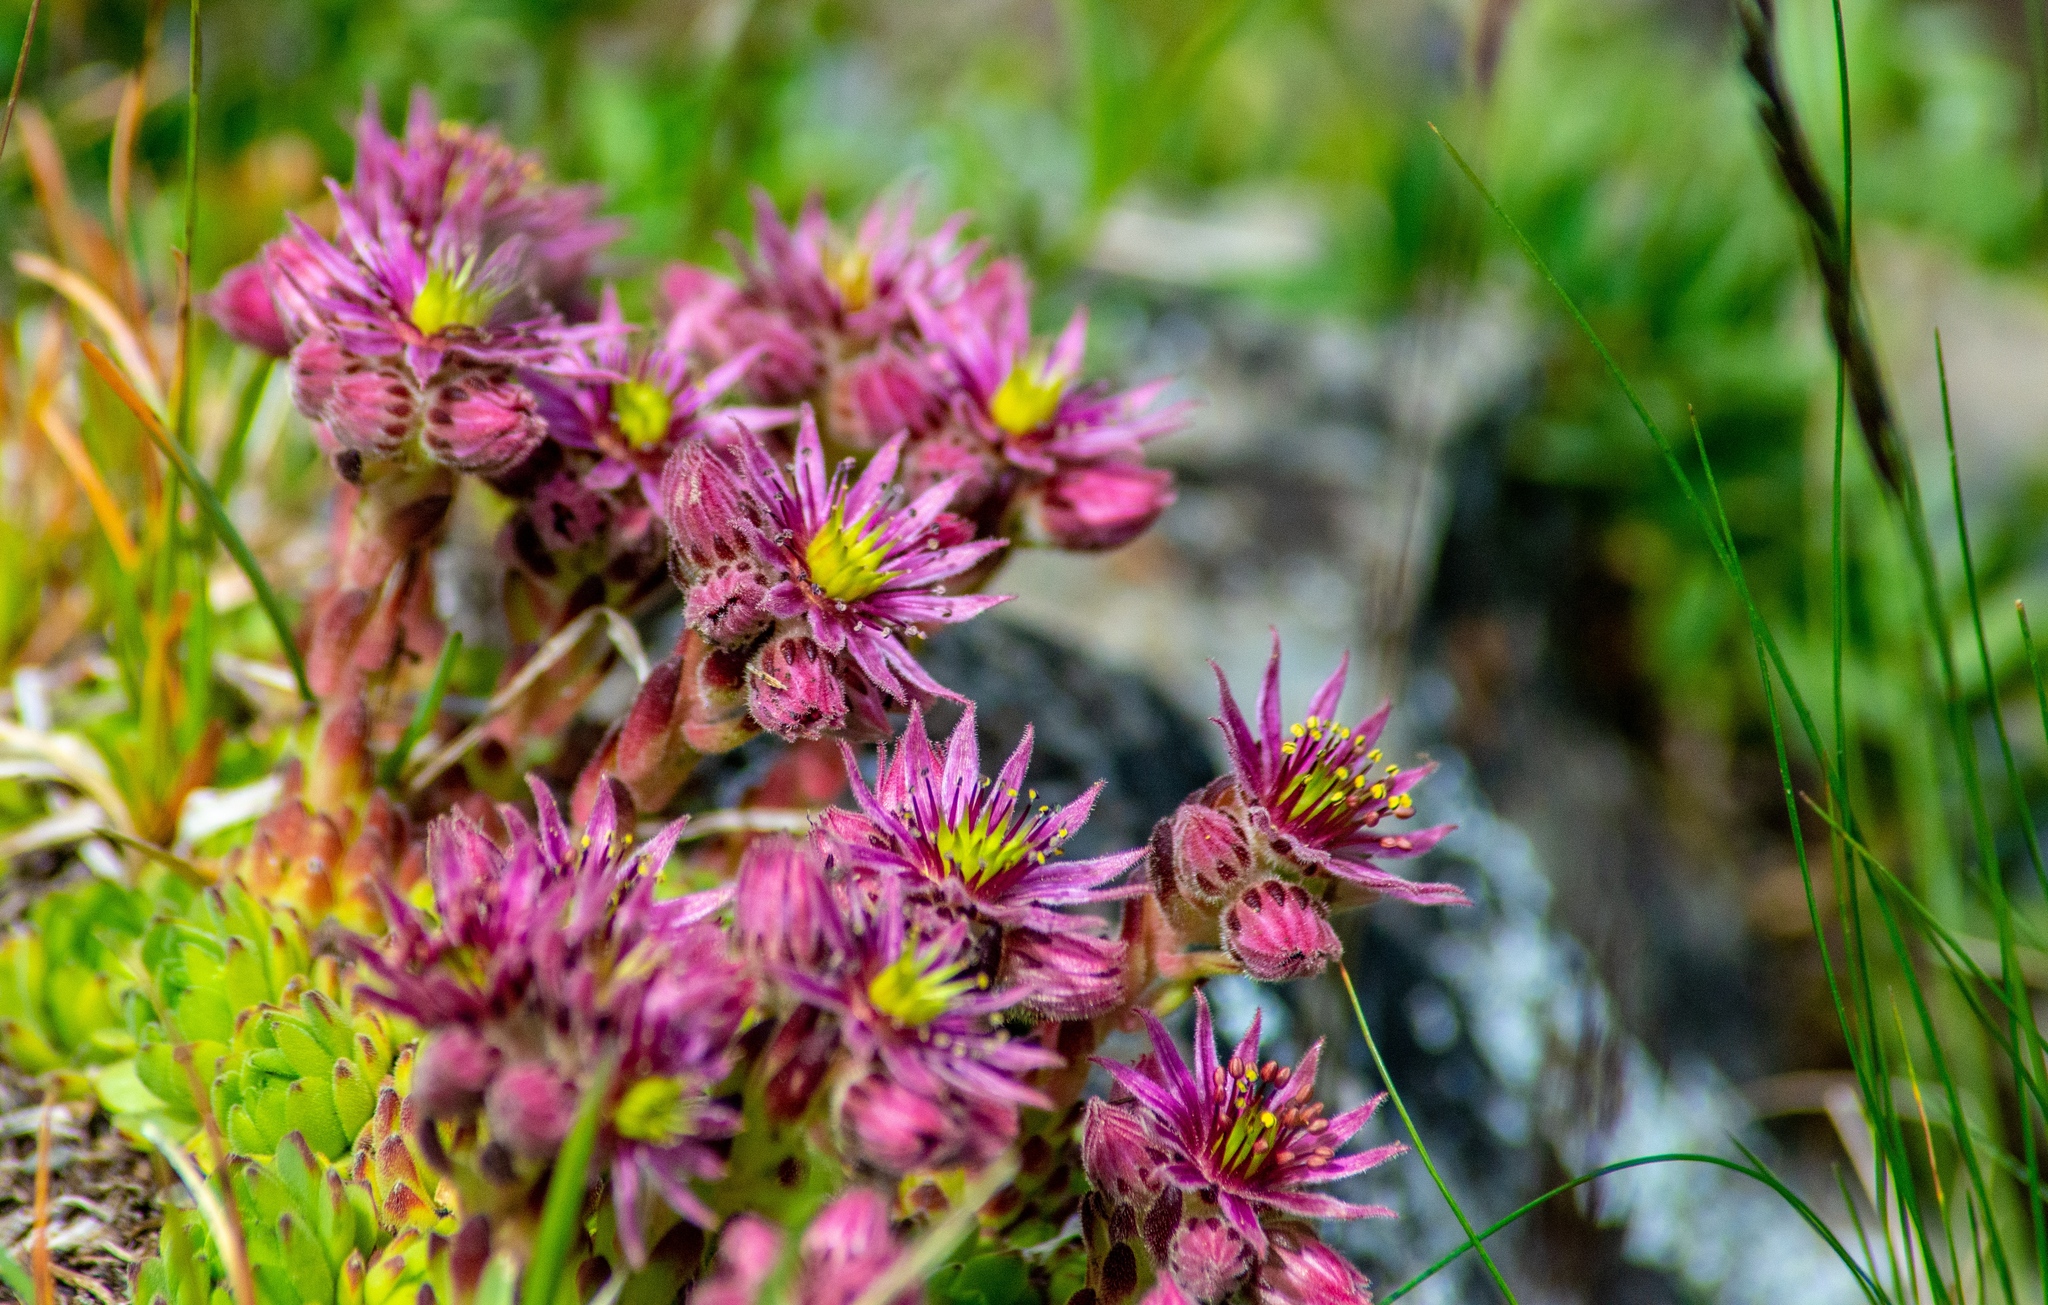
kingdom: Plantae
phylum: Tracheophyta
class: Magnoliopsida
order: Saxifragales
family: Crassulaceae
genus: Sempervivum
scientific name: Sempervivum montanum
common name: Mountain house-leek
